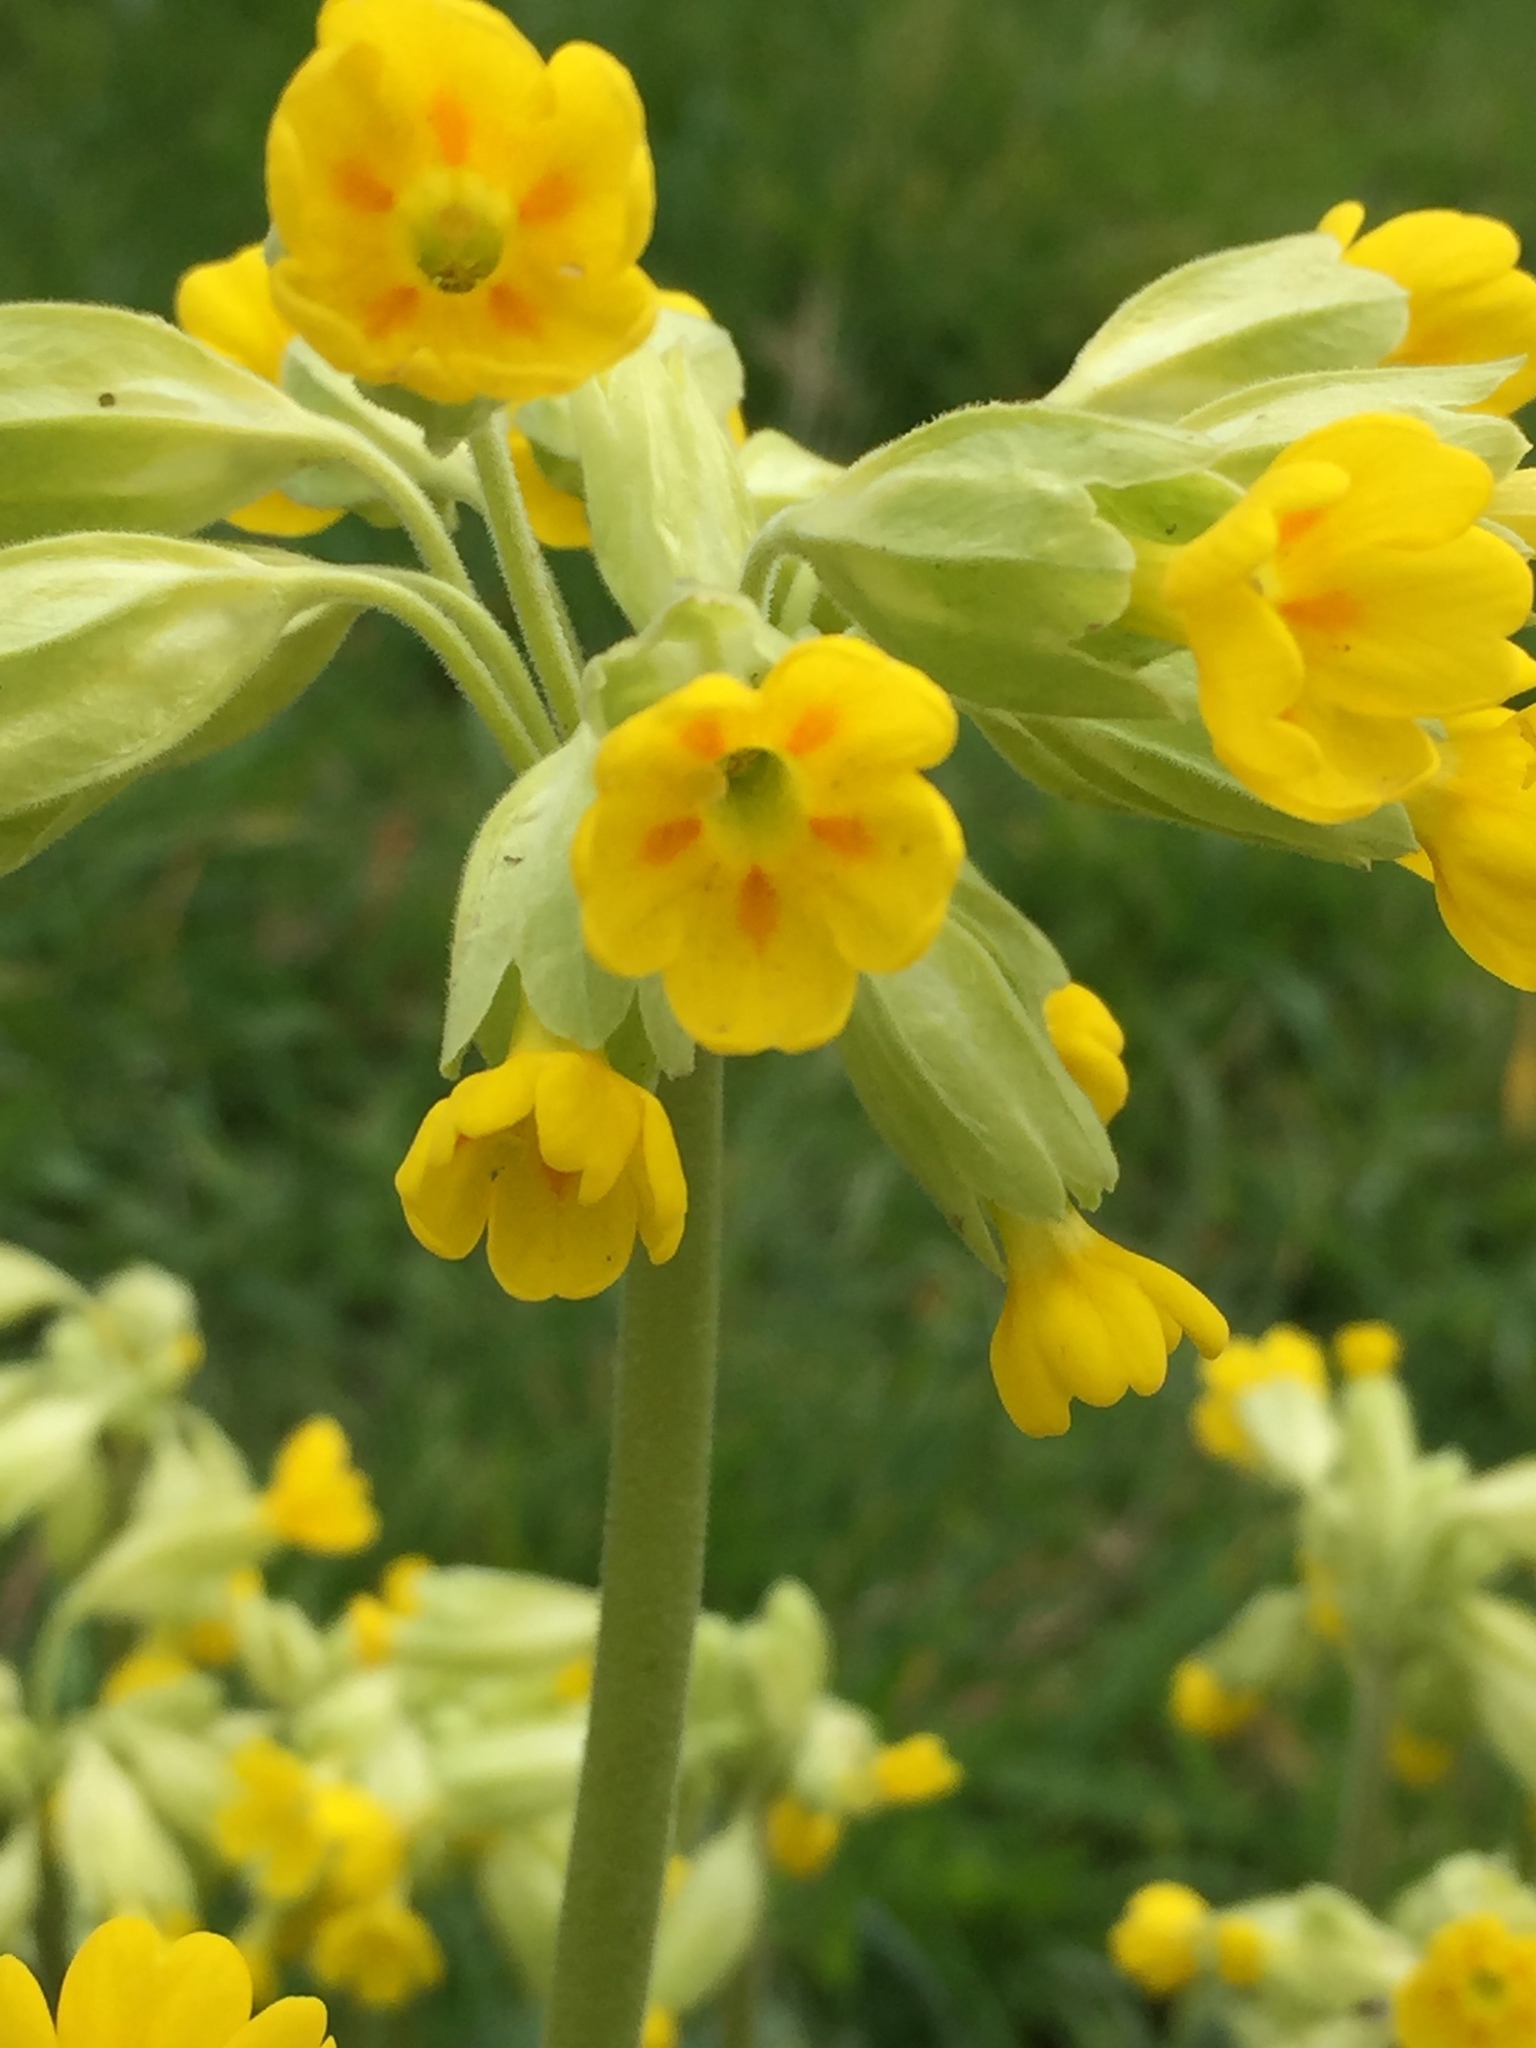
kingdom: Plantae
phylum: Tracheophyta
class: Magnoliopsida
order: Ericales
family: Primulaceae
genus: Primula
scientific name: Primula veris
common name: Cowslip
